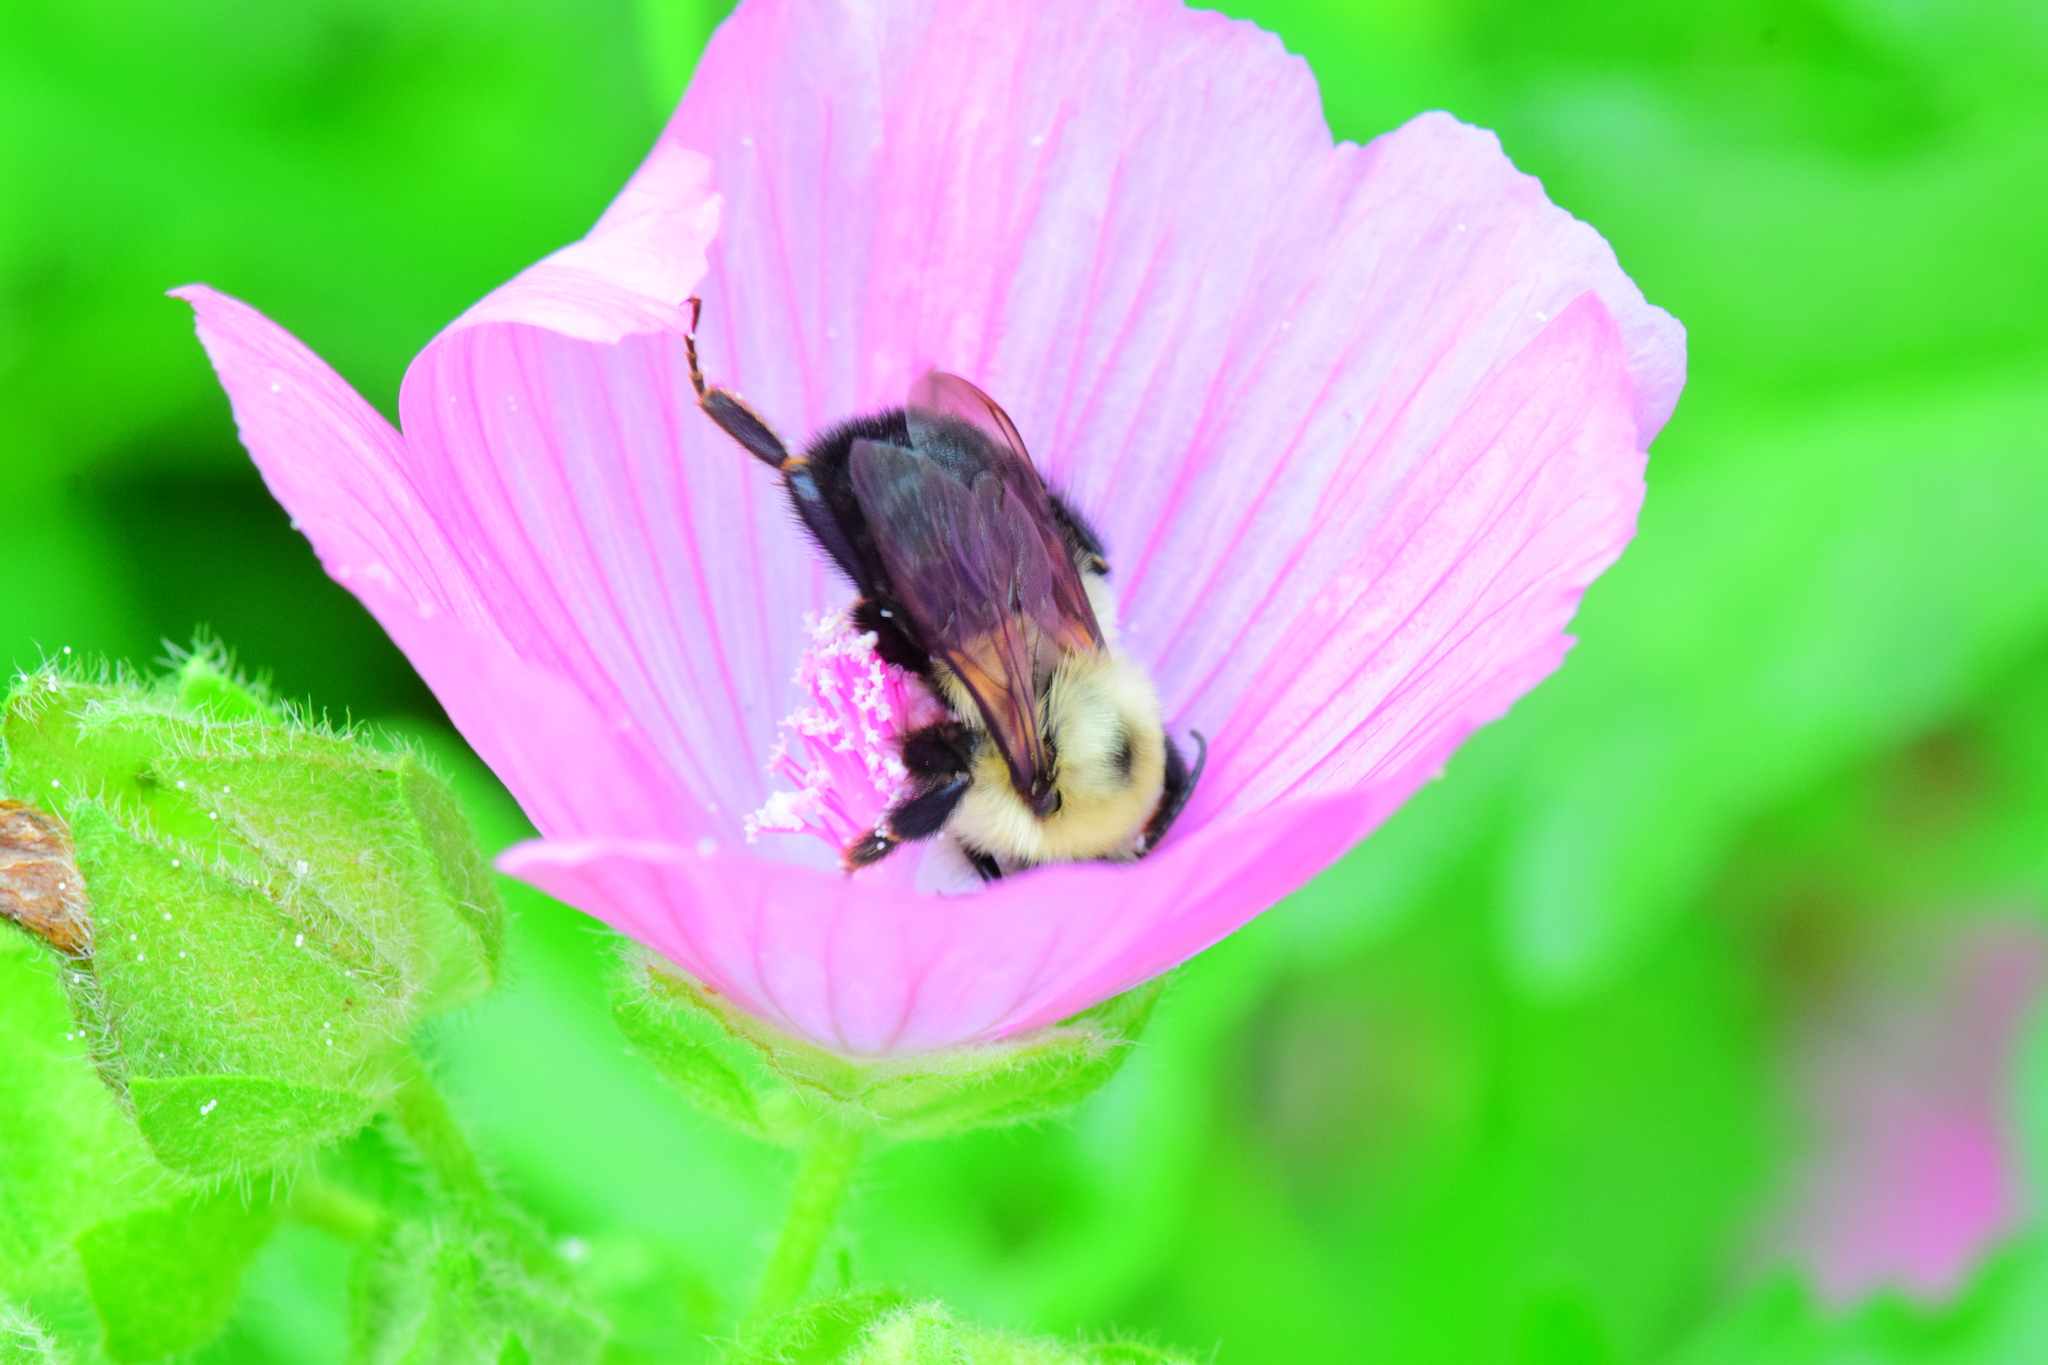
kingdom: Animalia
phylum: Arthropoda
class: Insecta
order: Hymenoptera
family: Apidae
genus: Bombus
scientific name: Bombus bimaculatus
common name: Two-spotted bumble bee
